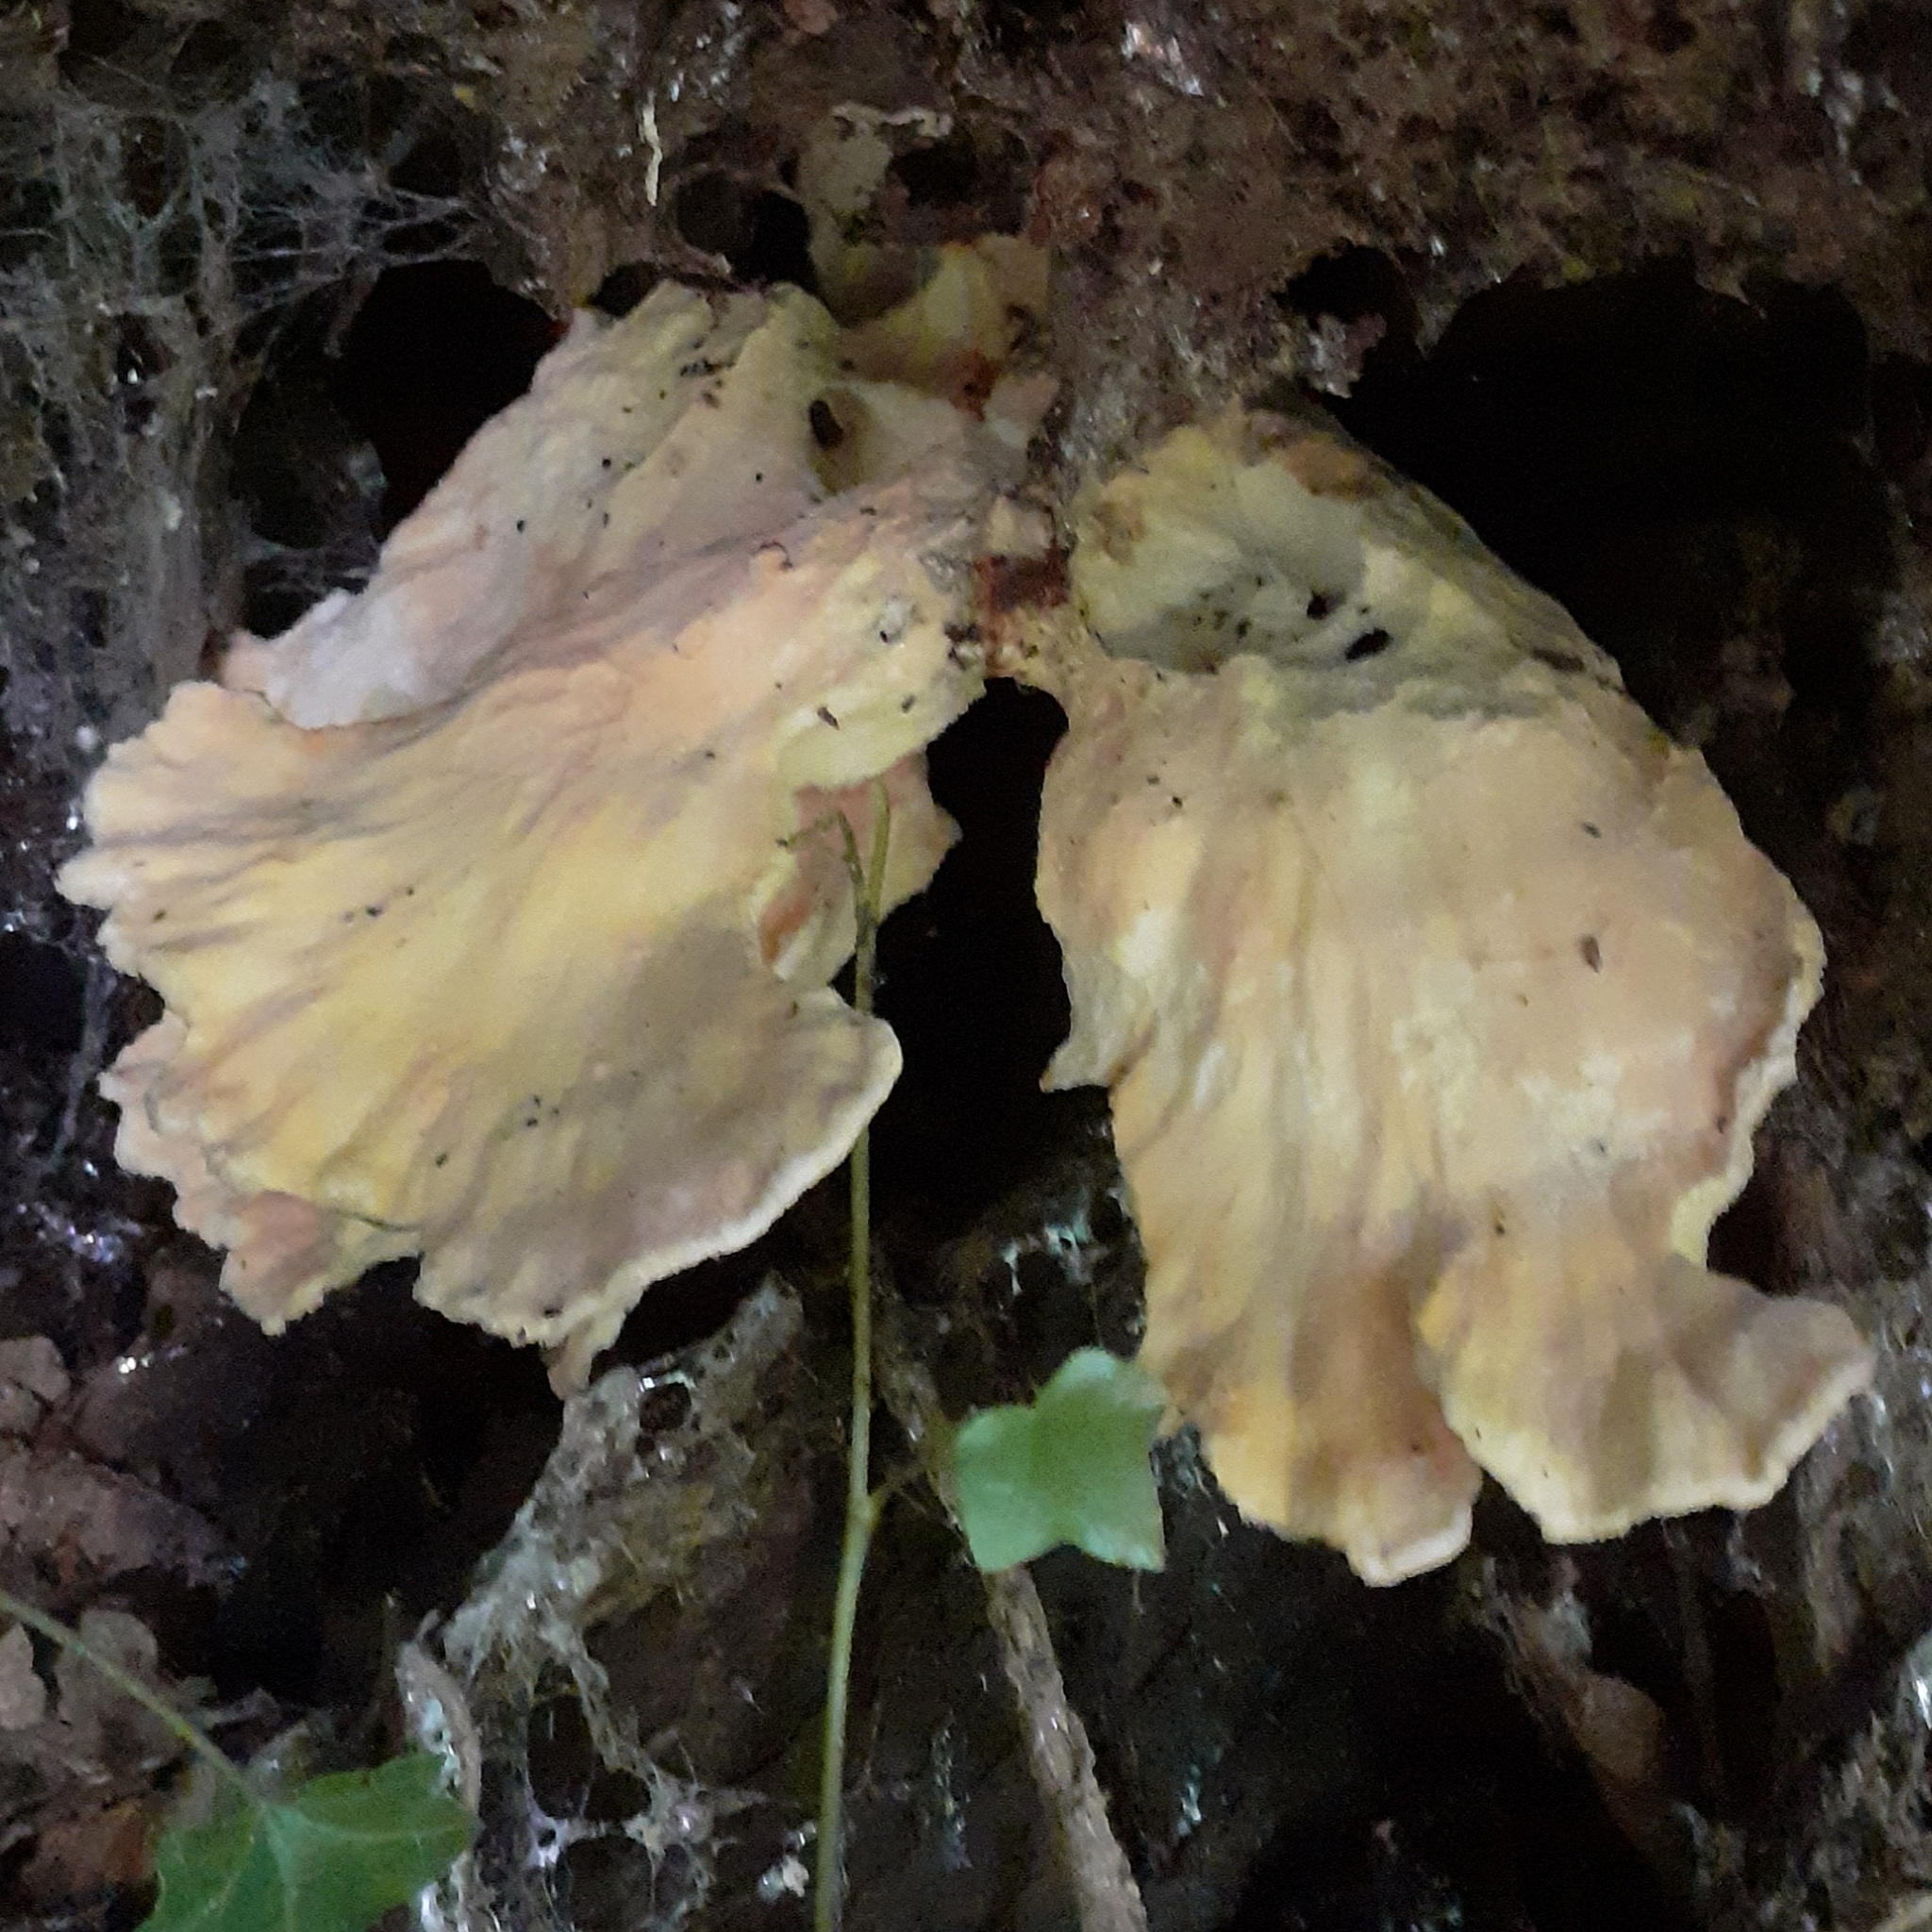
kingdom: Fungi
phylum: Basidiomycota
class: Agaricomycetes
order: Polyporales
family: Laetiporaceae
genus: Laetiporus
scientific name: Laetiporus sulphureus
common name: Chicken of the woods
